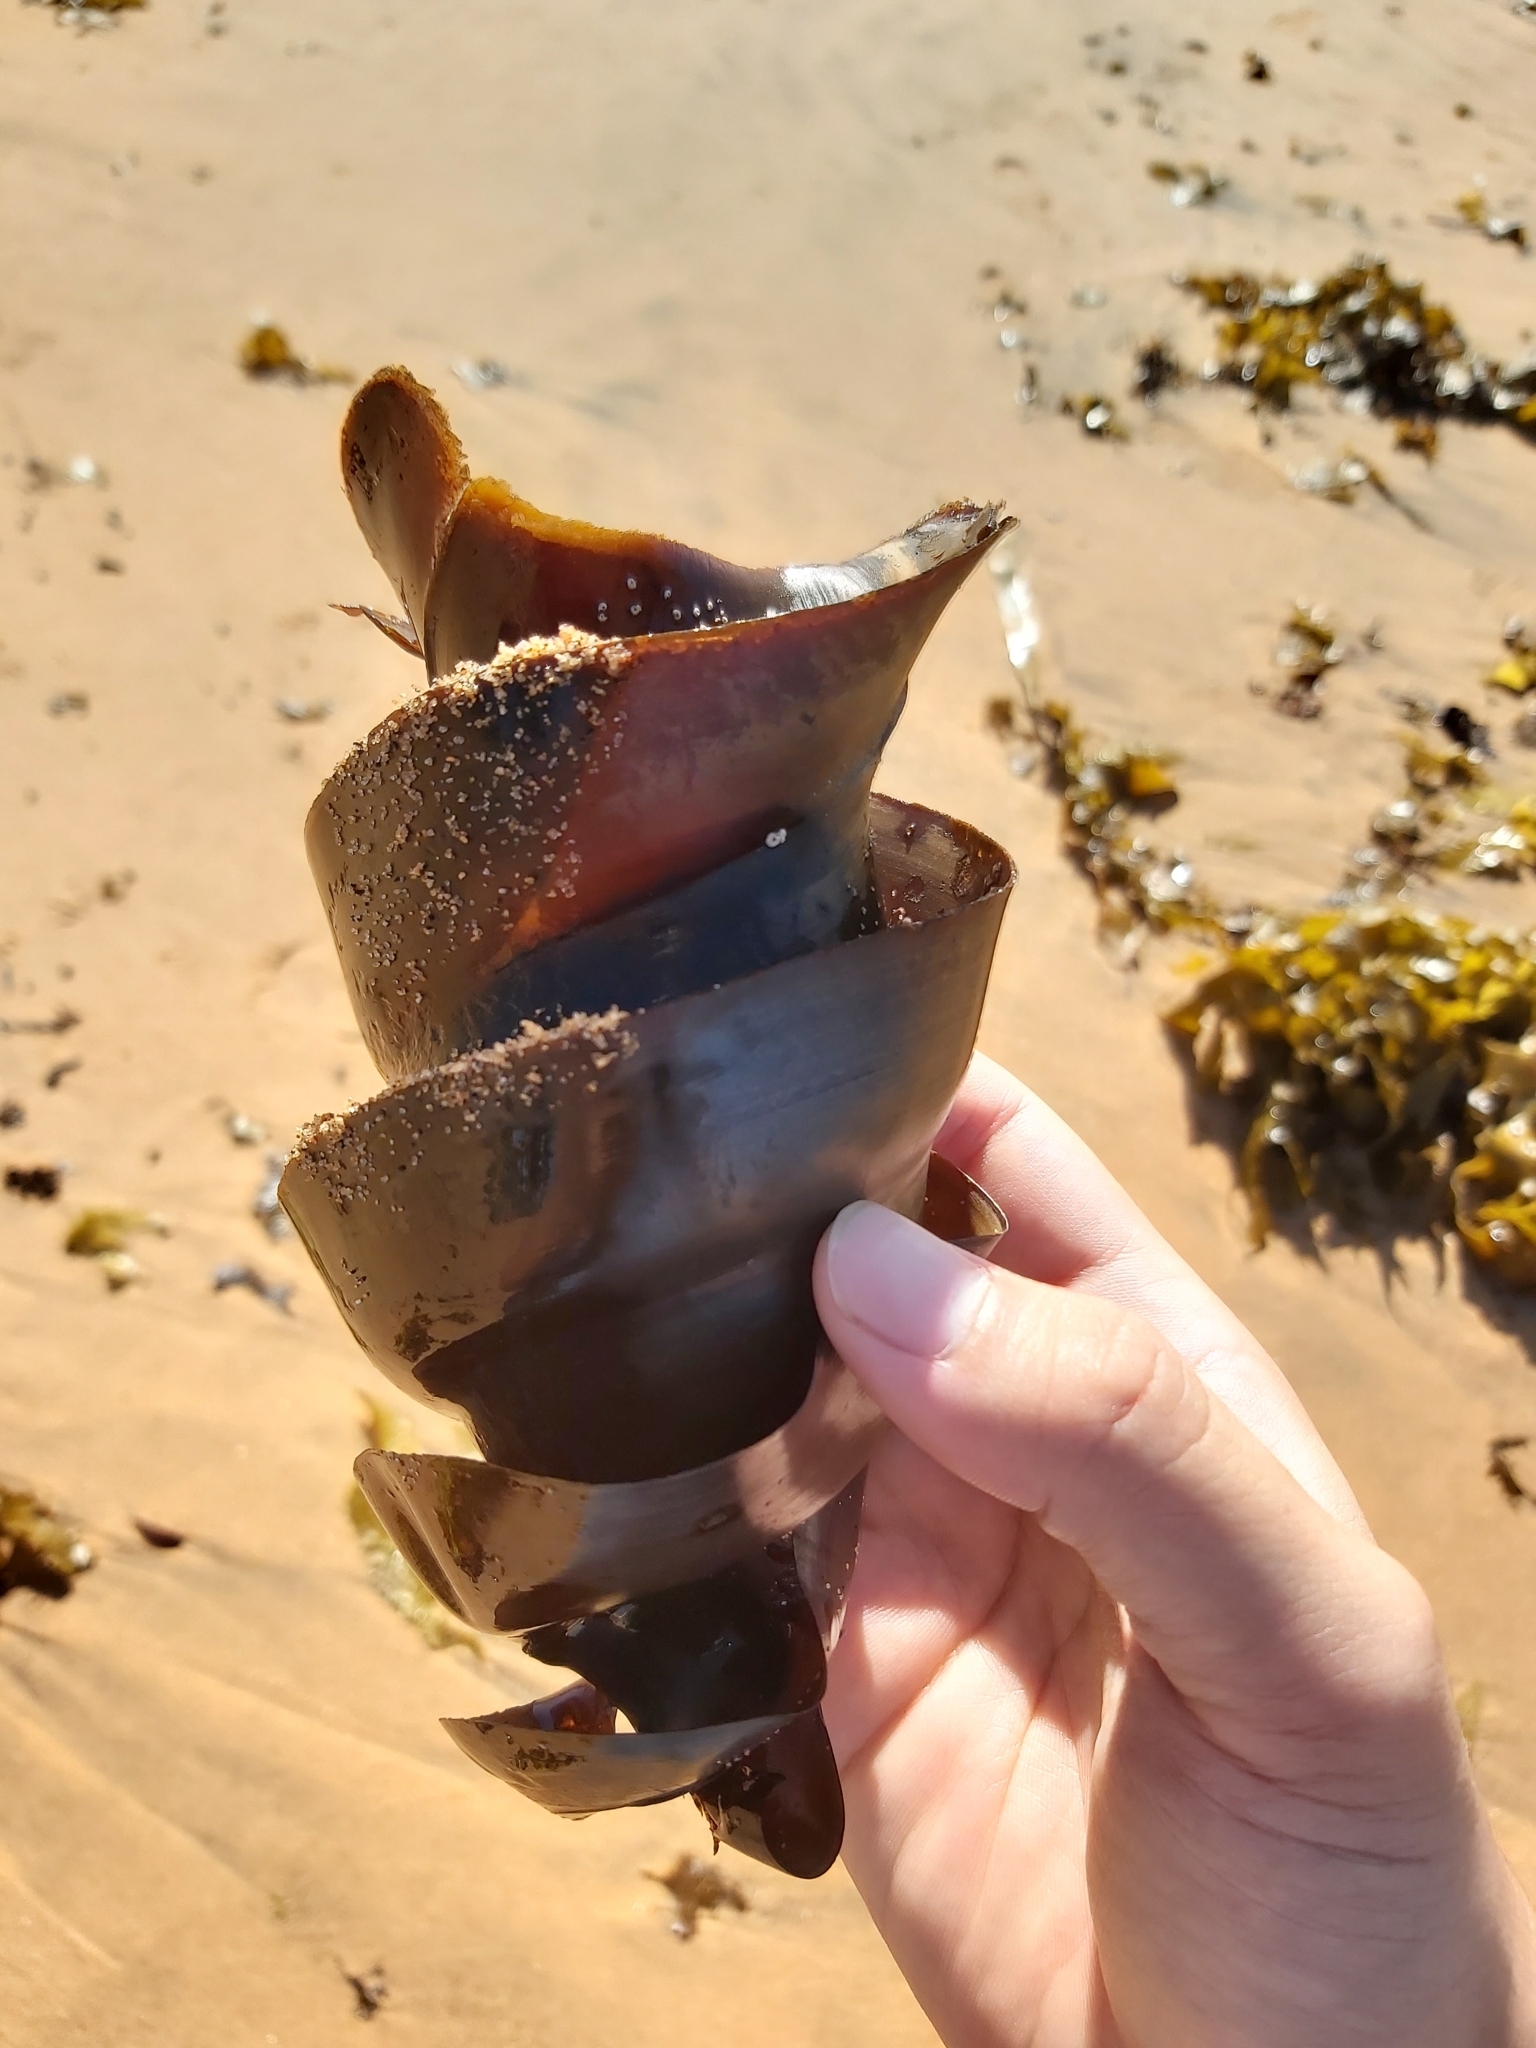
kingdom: Animalia
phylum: Chordata
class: Elasmobranchii
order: Heterodontiformes
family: Heterodontidae
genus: Heterodontus
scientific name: Heterodontus portusjacksoni
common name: Port jackson shark
